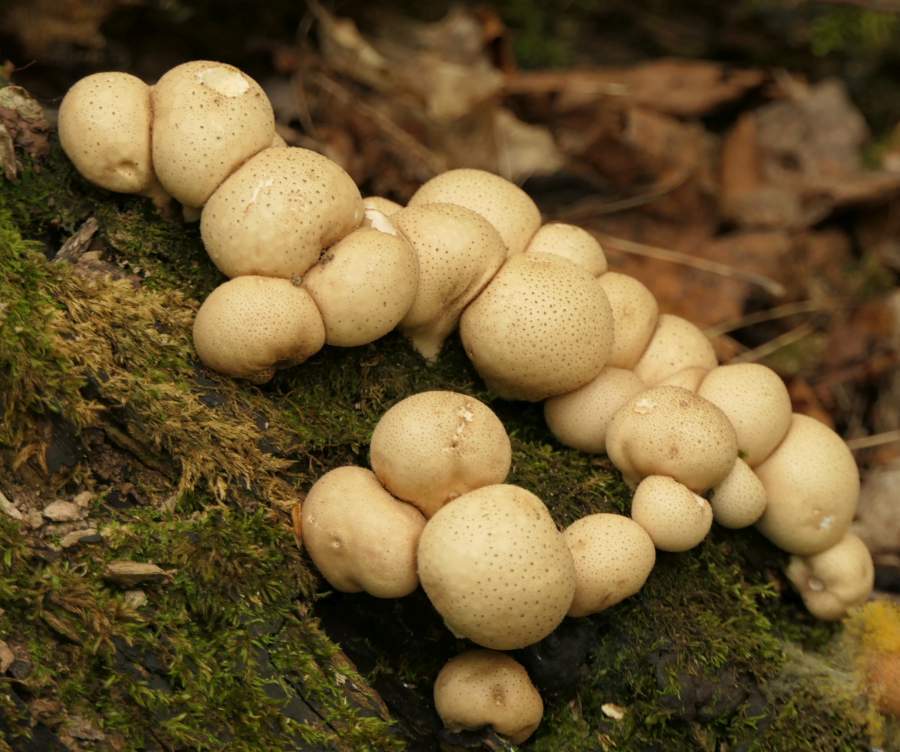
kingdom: Fungi
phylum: Basidiomycota
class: Agaricomycetes
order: Agaricales
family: Lycoperdaceae
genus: Apioperdon
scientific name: Apioperdon pyriforme
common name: Pear-shaped puffball
